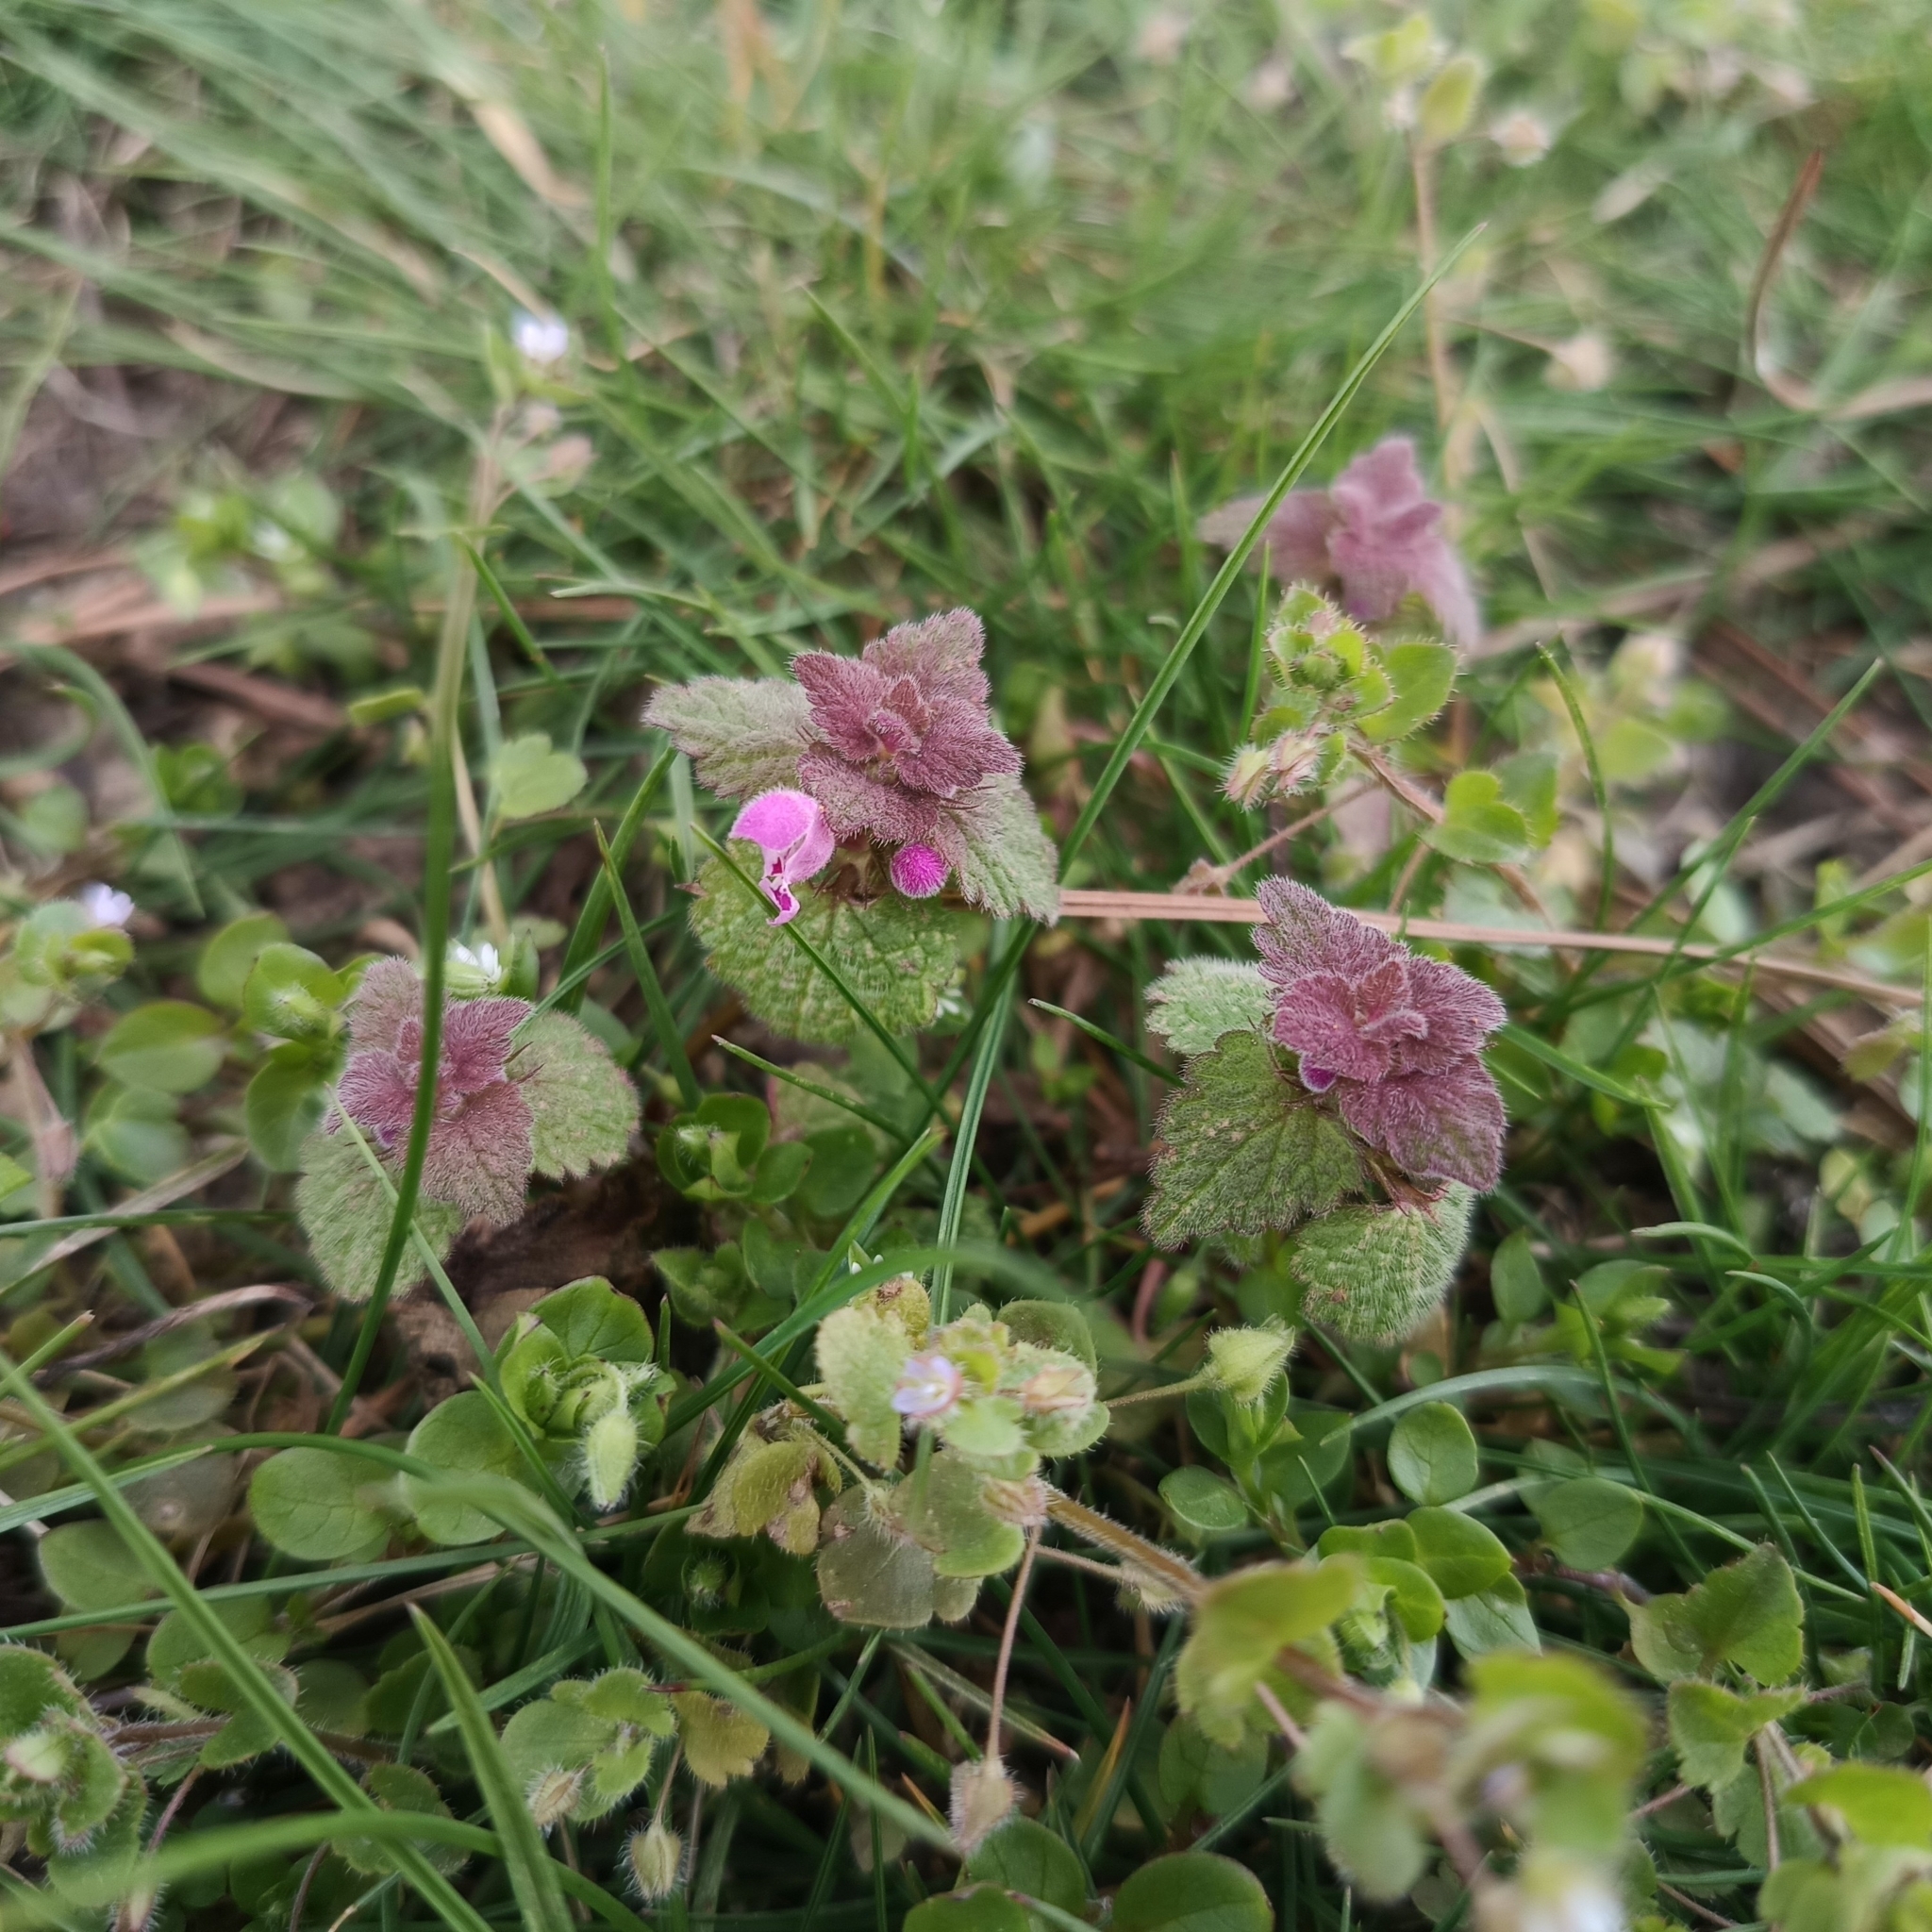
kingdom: Plantae
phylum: Tracheophyta
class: Magnoliopsida
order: Lamiales
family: Lamiaceae
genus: Lamium
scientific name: Lamium purpureum
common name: Red dead-nettle
